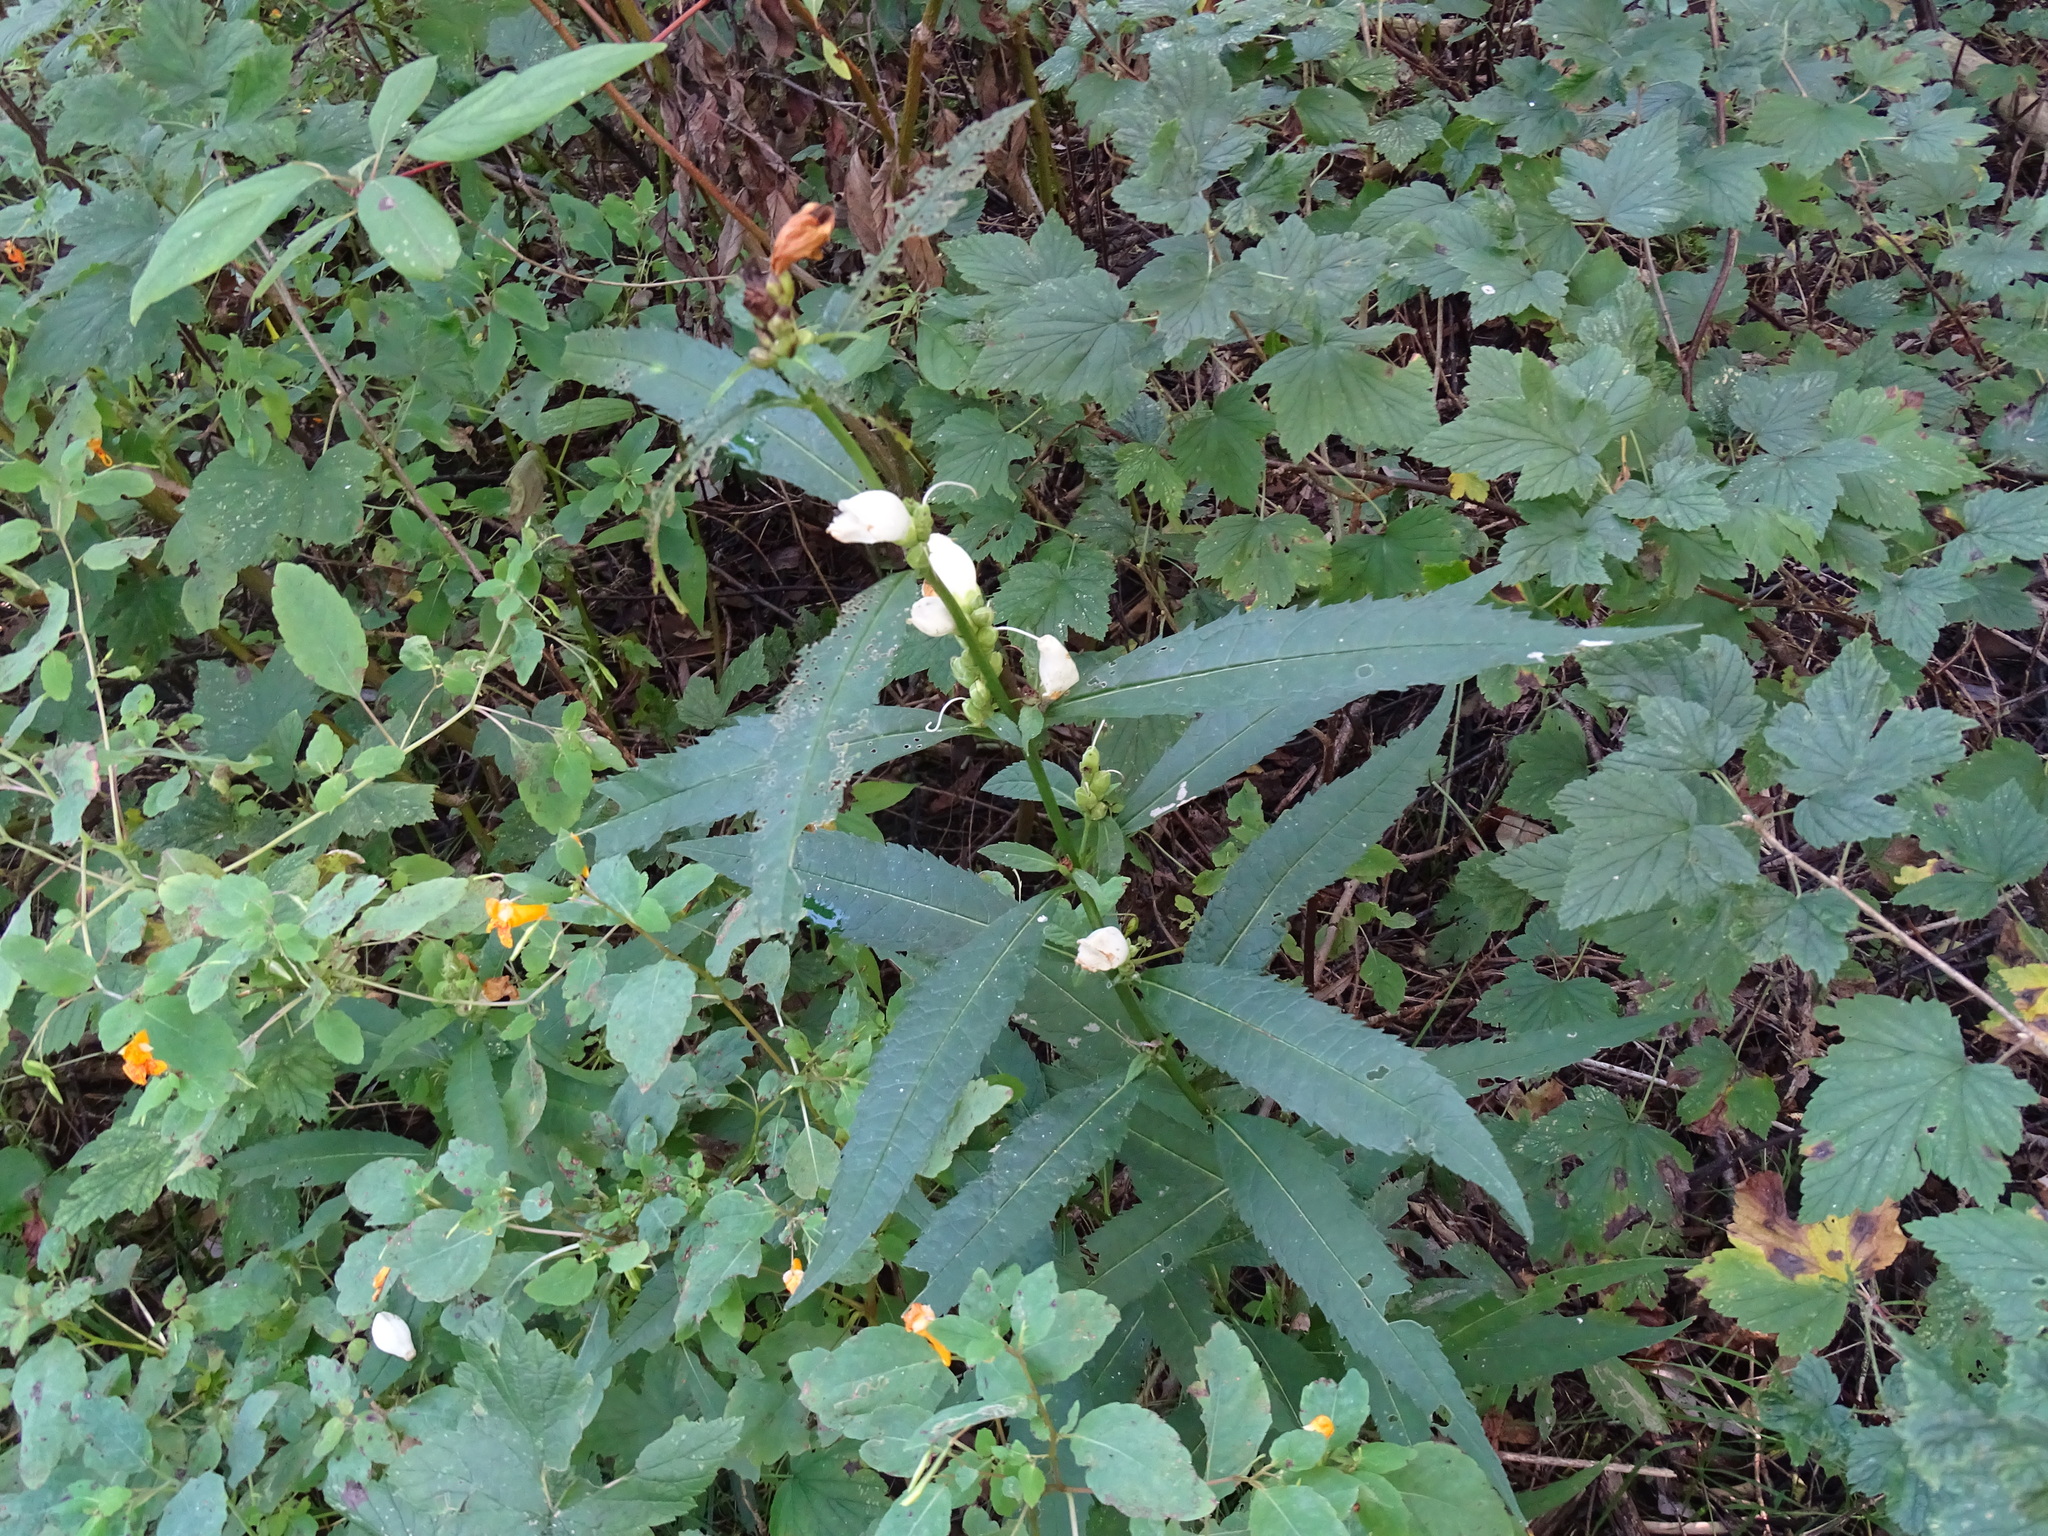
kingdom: Plantae
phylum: Tracheophyta
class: Magnoliopsida
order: Lamiales
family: Plantaginaceae
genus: Chelone
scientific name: Chelone glabra
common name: Snakehead
